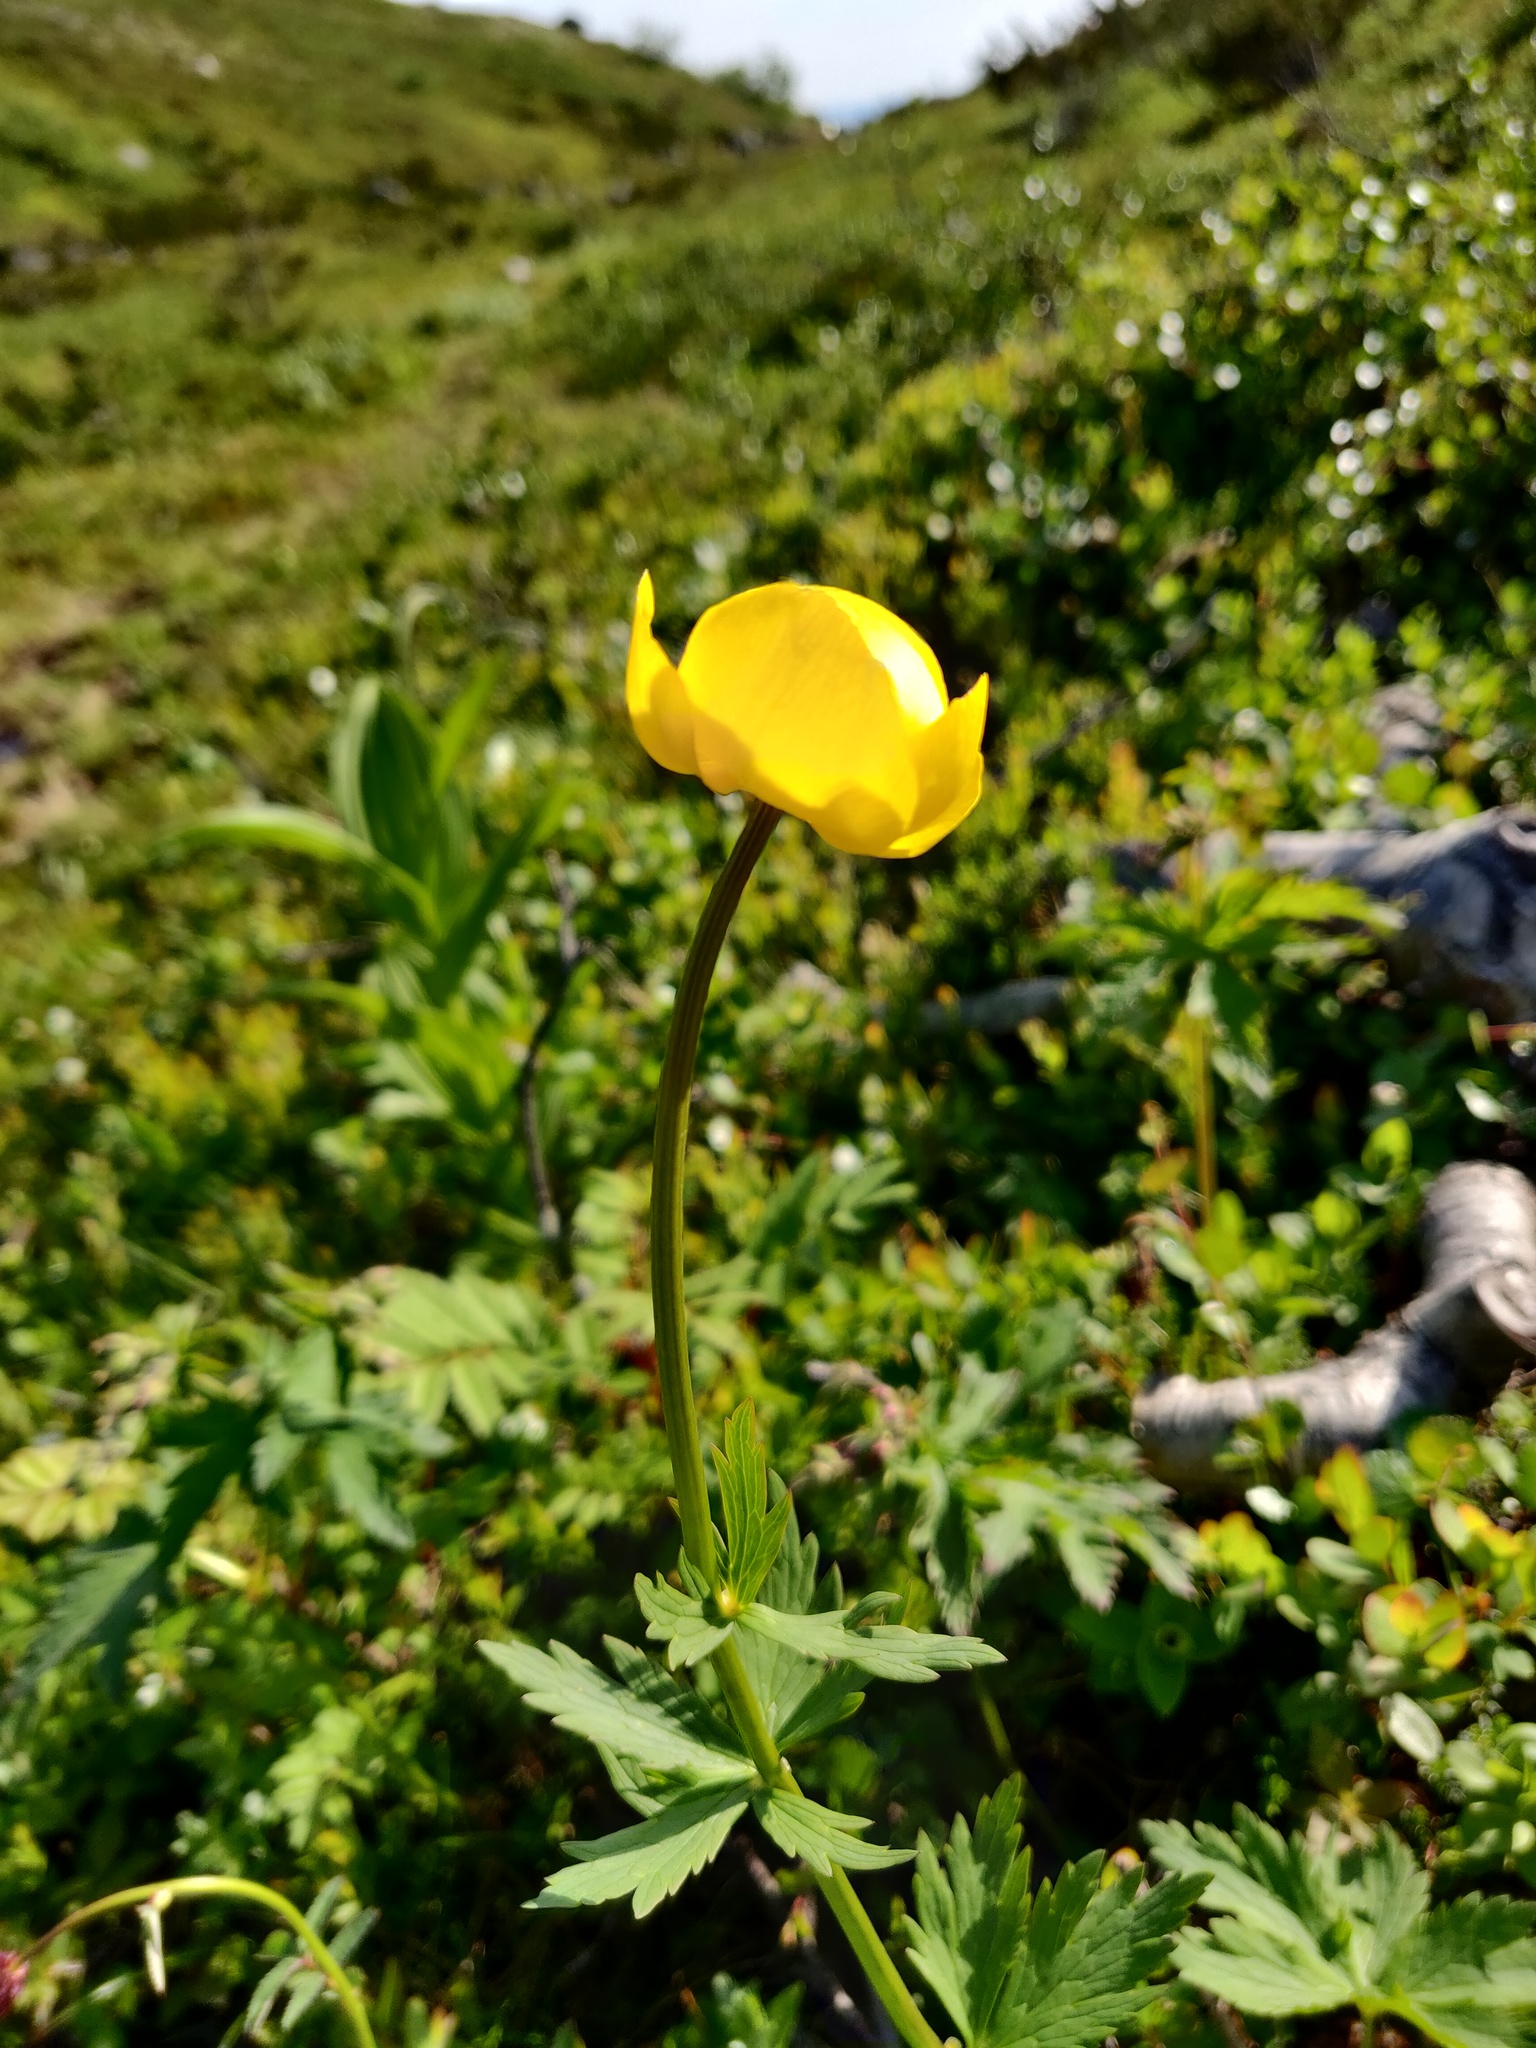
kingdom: Plantae
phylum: Tracheophyta
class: Magnoliopsida
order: Ranunculales
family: Ranunculaceae
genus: Trollius
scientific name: Trollius europaeus
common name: European globeflower
